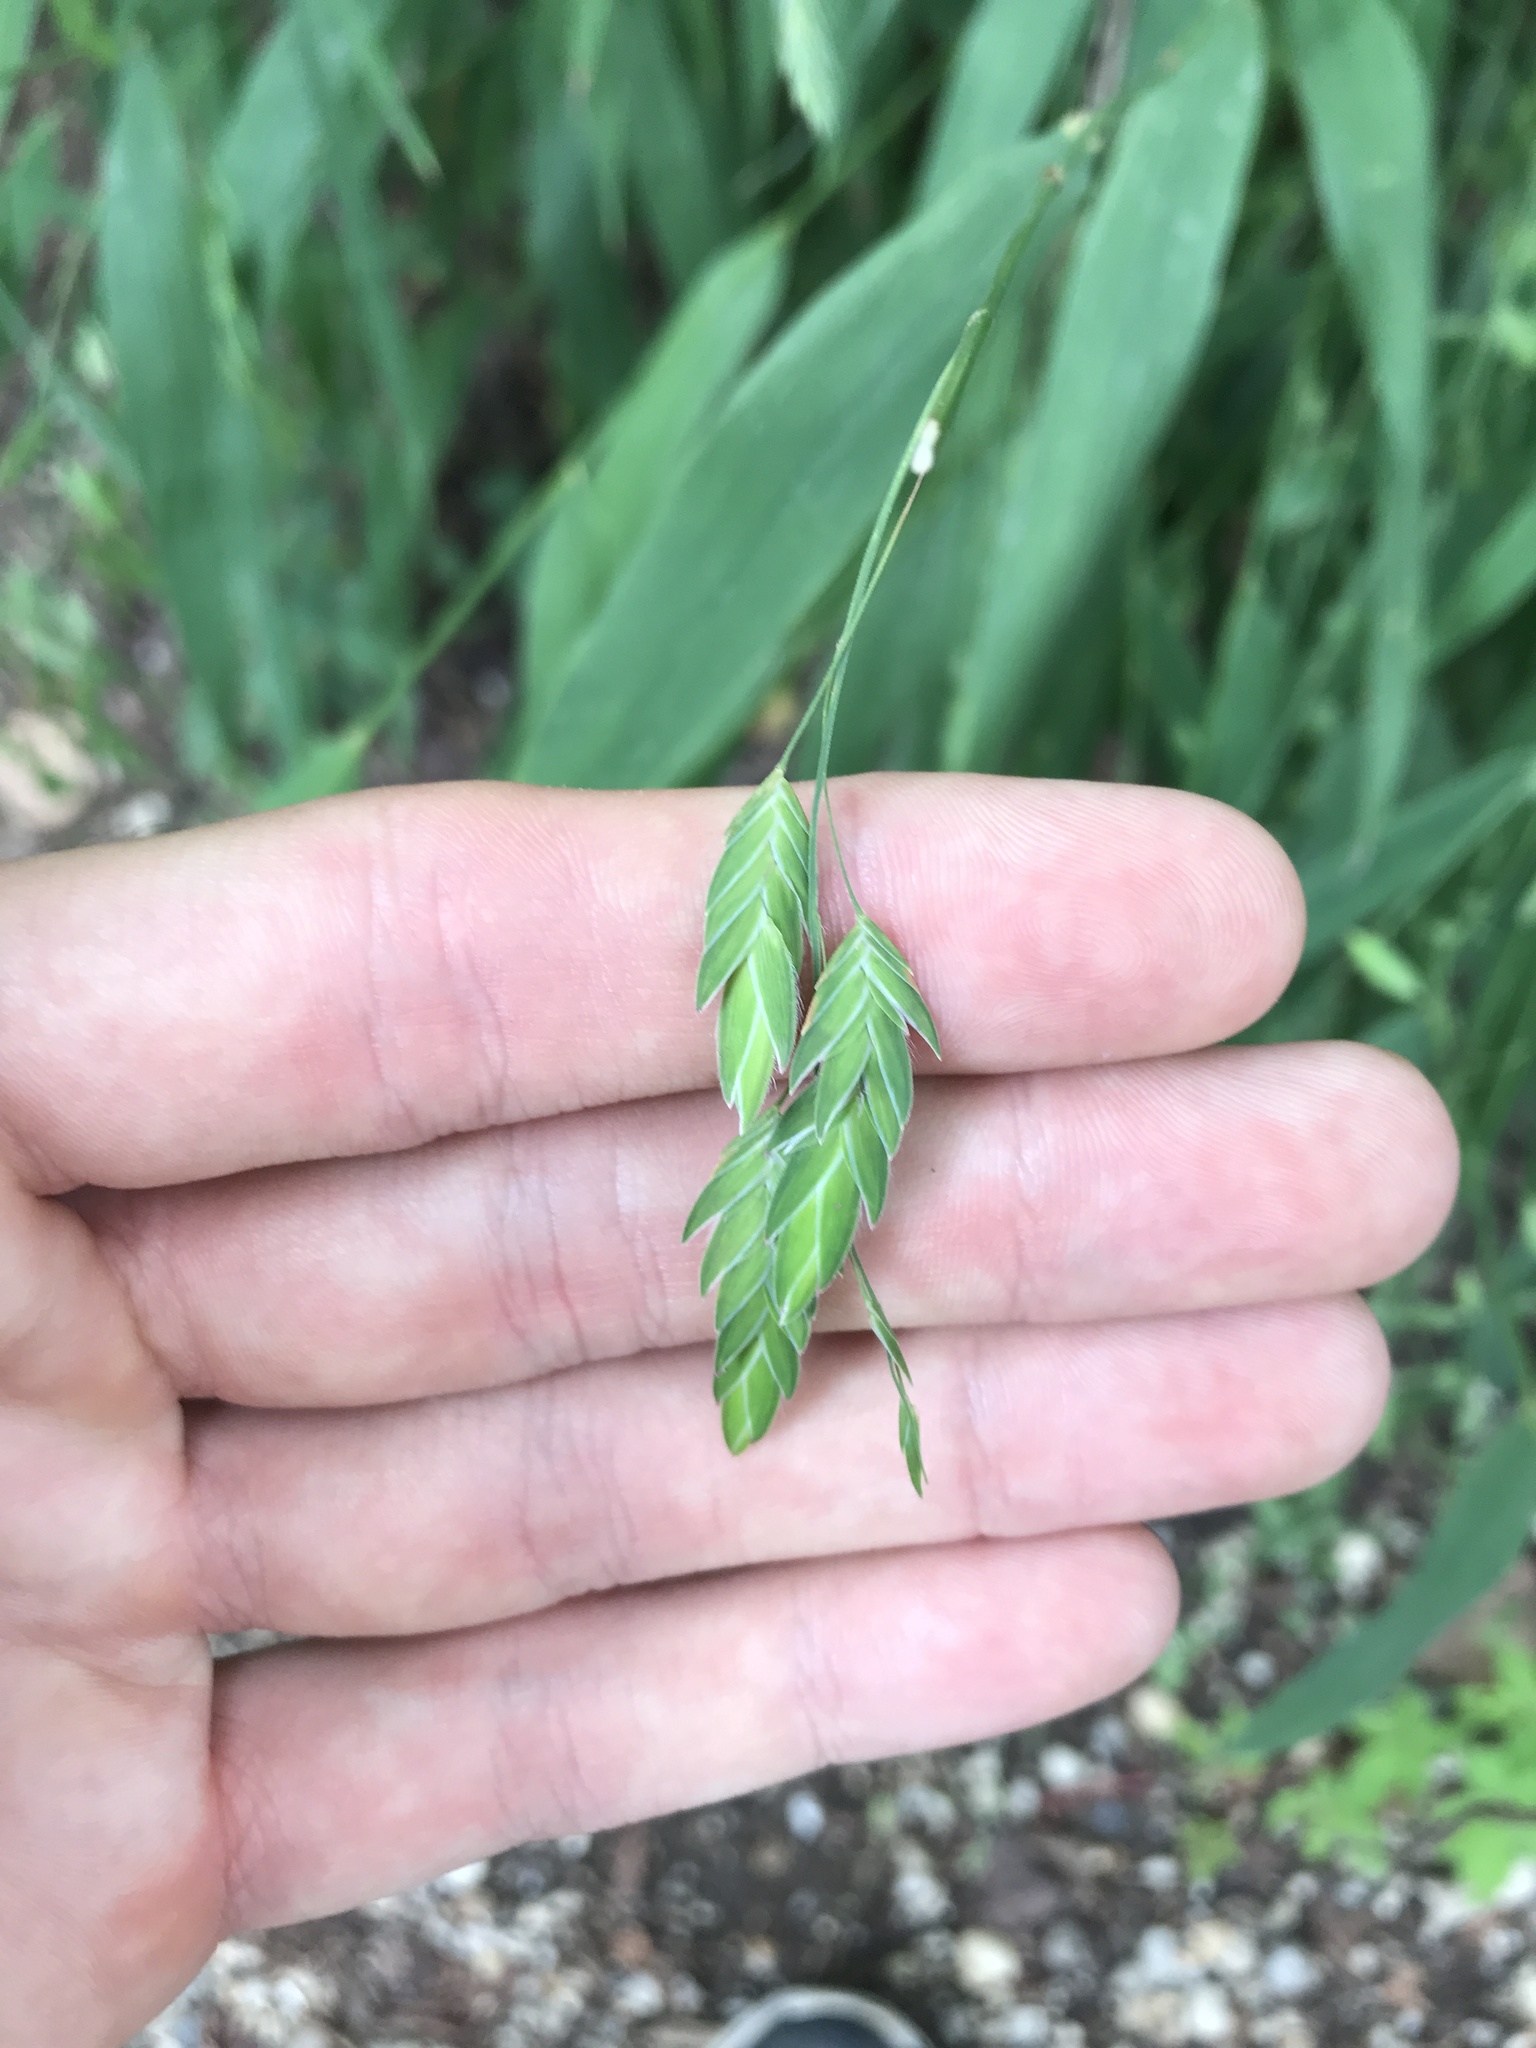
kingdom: Plantae
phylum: Tracheophyta
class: Liliopsida
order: Poales
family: Poaceae
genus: Chasmanthium
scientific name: Chasmanthium latifolium
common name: Broad-leaved chasmanthium
